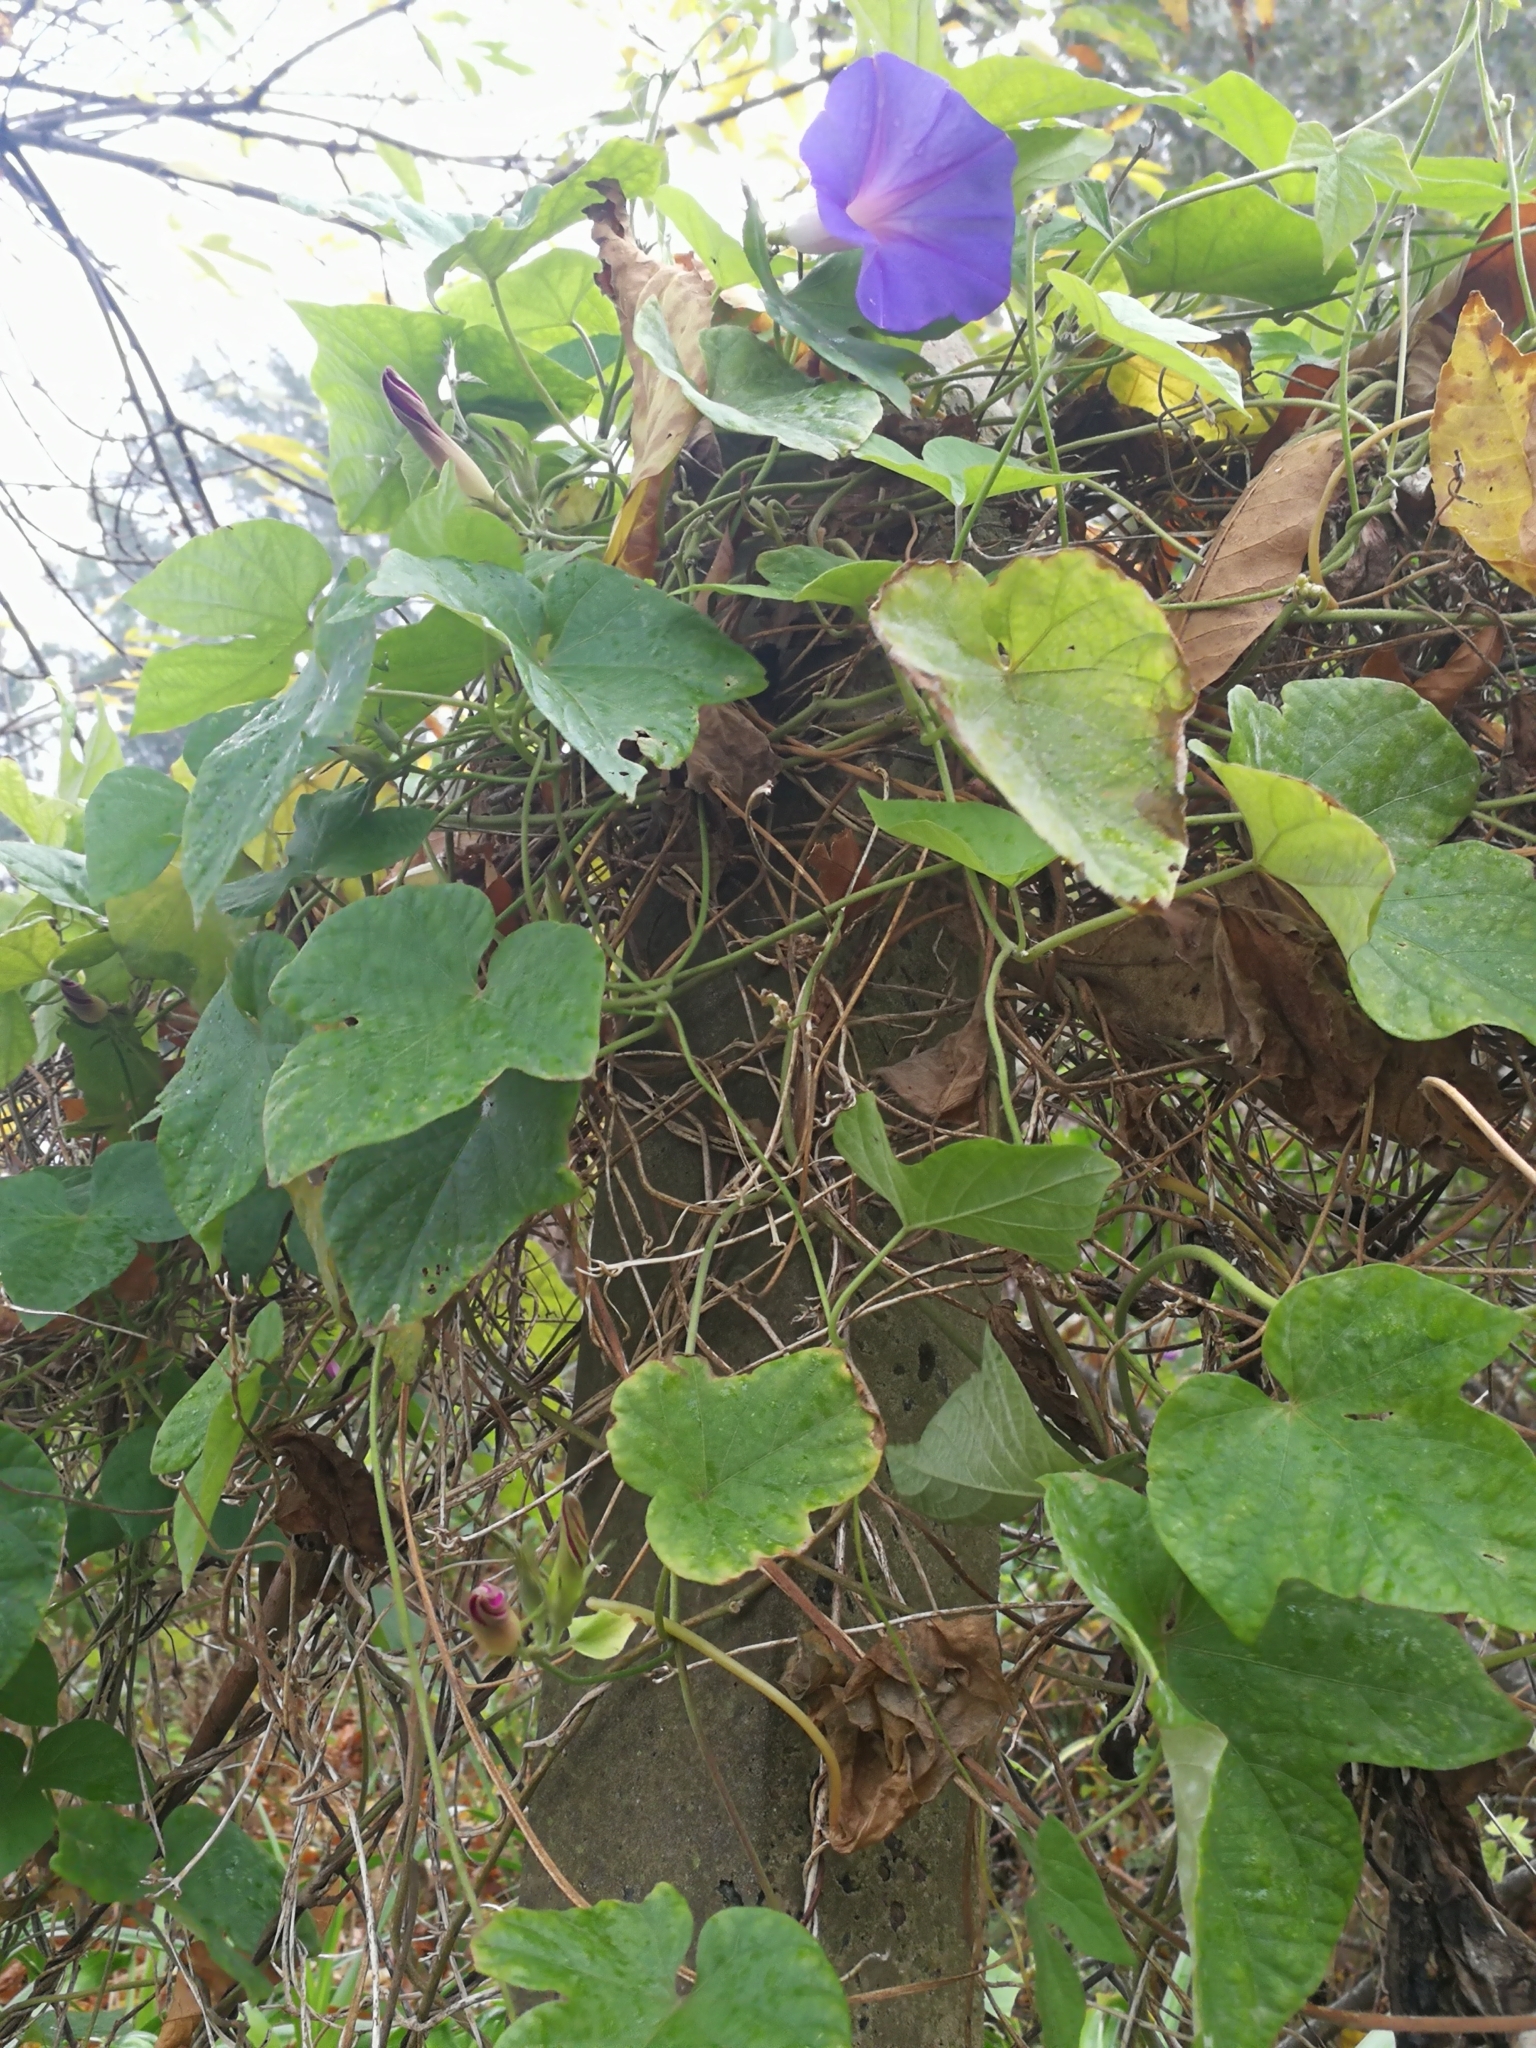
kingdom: Plantae
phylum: Tracheophyta
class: Magnoliopsida
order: Solanales
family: Convolvulaceae
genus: Ipomoea
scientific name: Ipomoea indica
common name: Blue dawnflower
